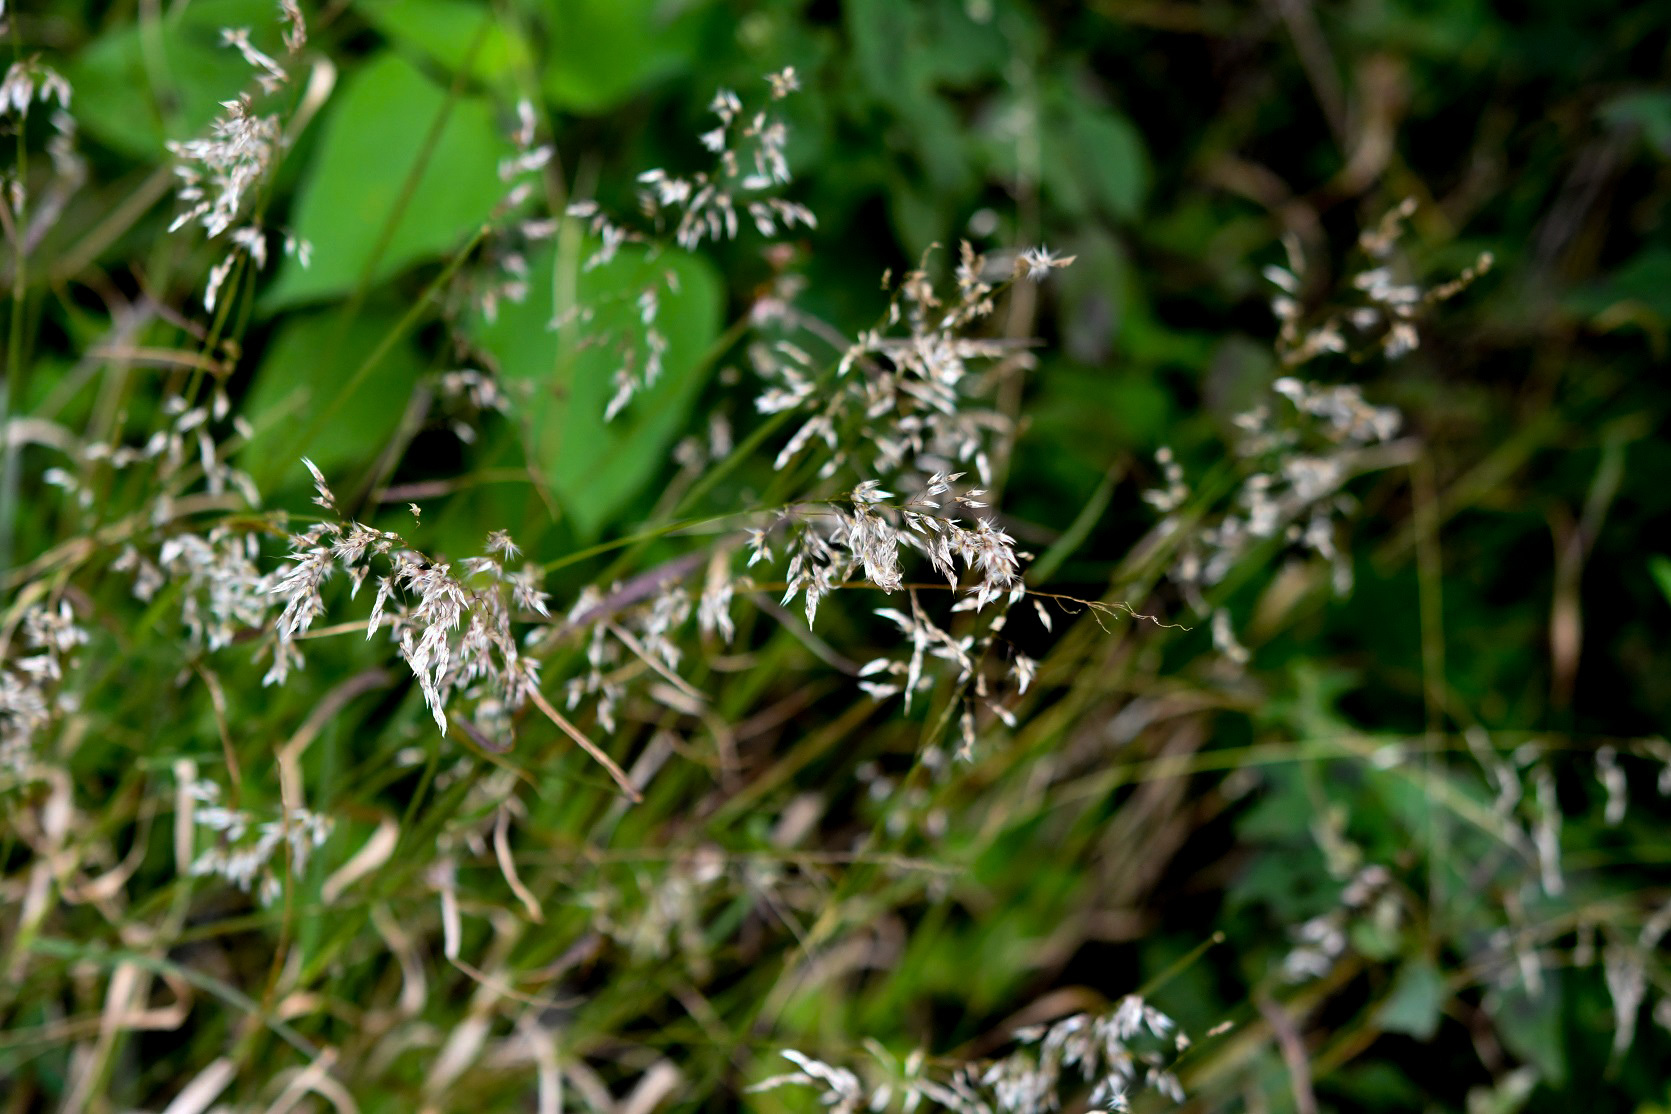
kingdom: Plantae
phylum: Tracheophyta
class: Liliopsida
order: Poales
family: Poaceae
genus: Melinis
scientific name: Melinis repens
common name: Rose natal grass
